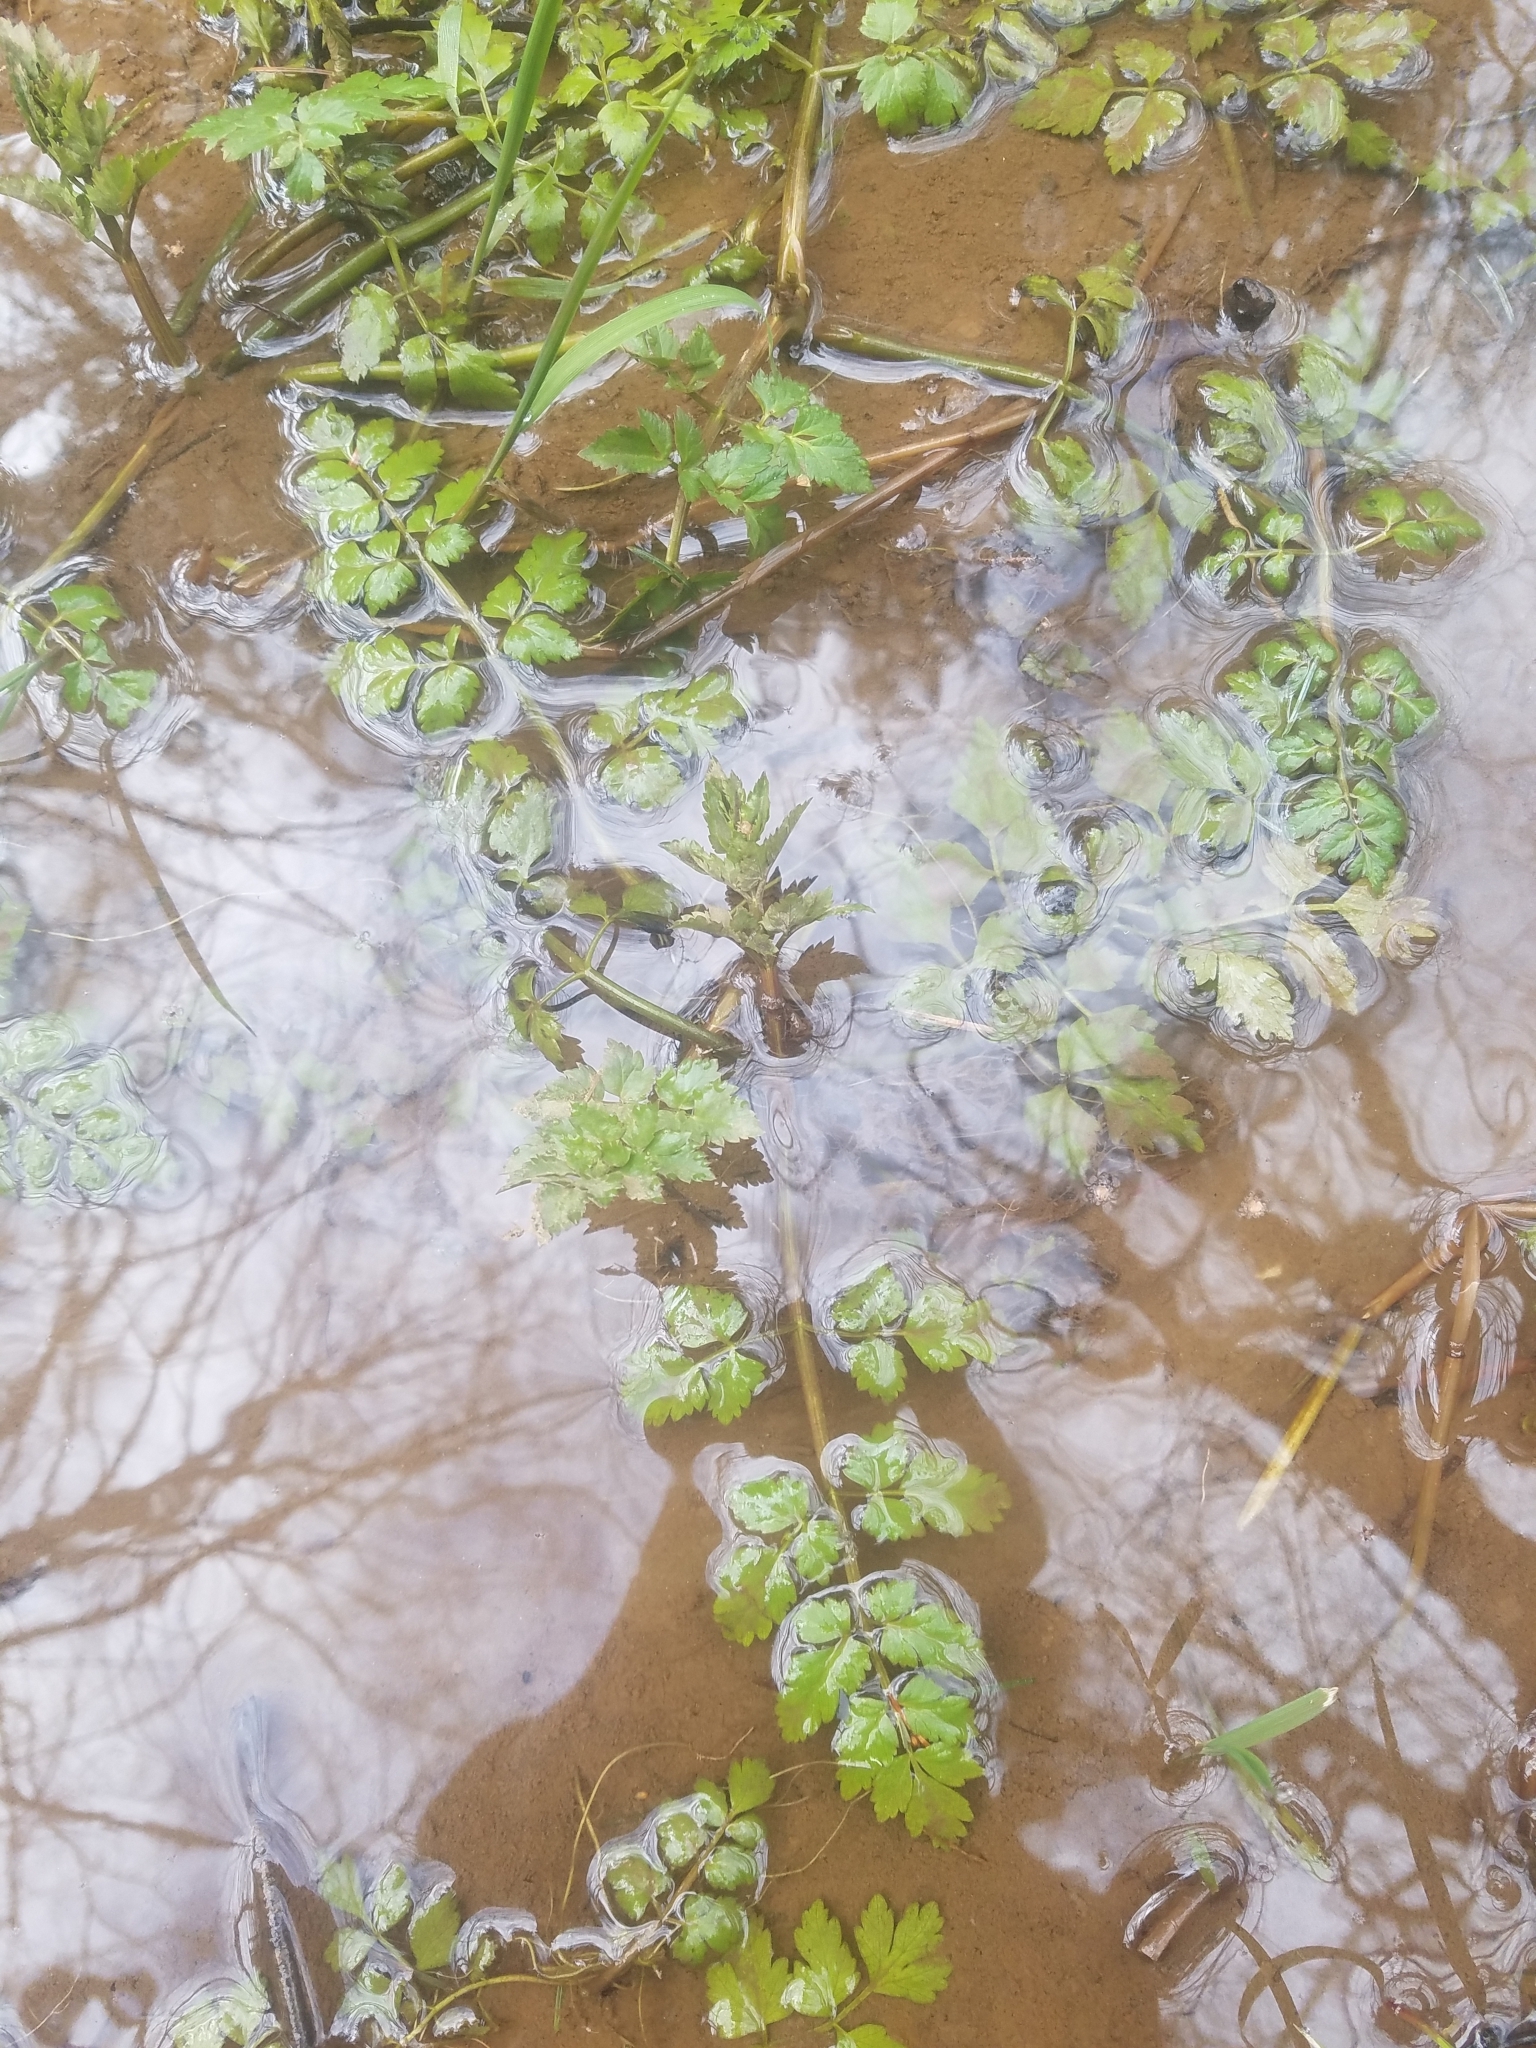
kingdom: Plantae
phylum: Tracheophyta
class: Magnoliopsida
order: Apiales
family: Apiaceae
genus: Oenanthe
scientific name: Oenanthe sarmentosa
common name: American water-parsley
